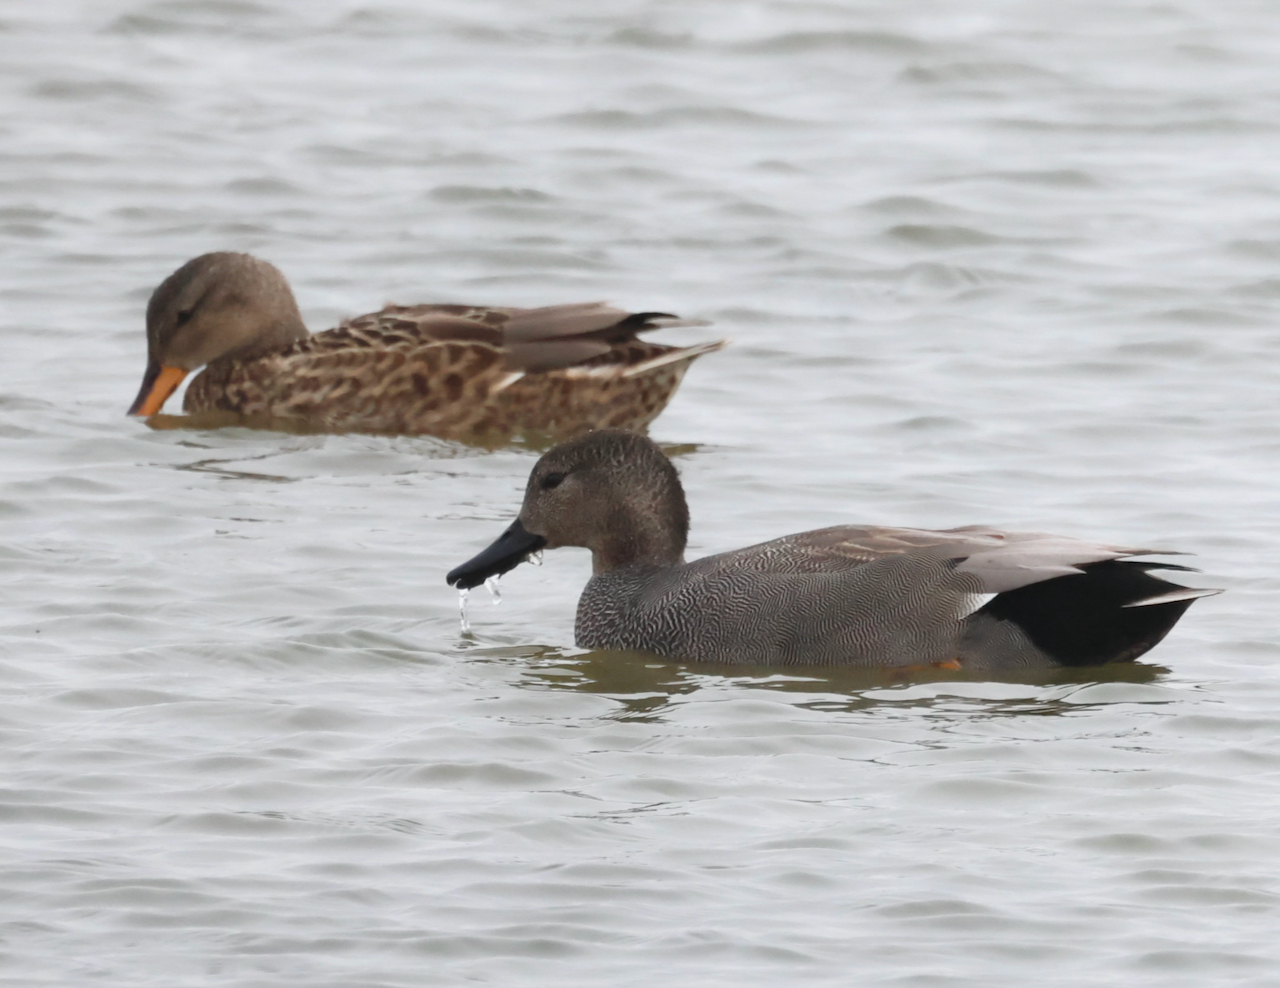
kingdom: Animalia
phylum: Chordata
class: Aves
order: Anseriformes
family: Anatidae
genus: Mareca
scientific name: Mareca strepera
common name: Gadwall
